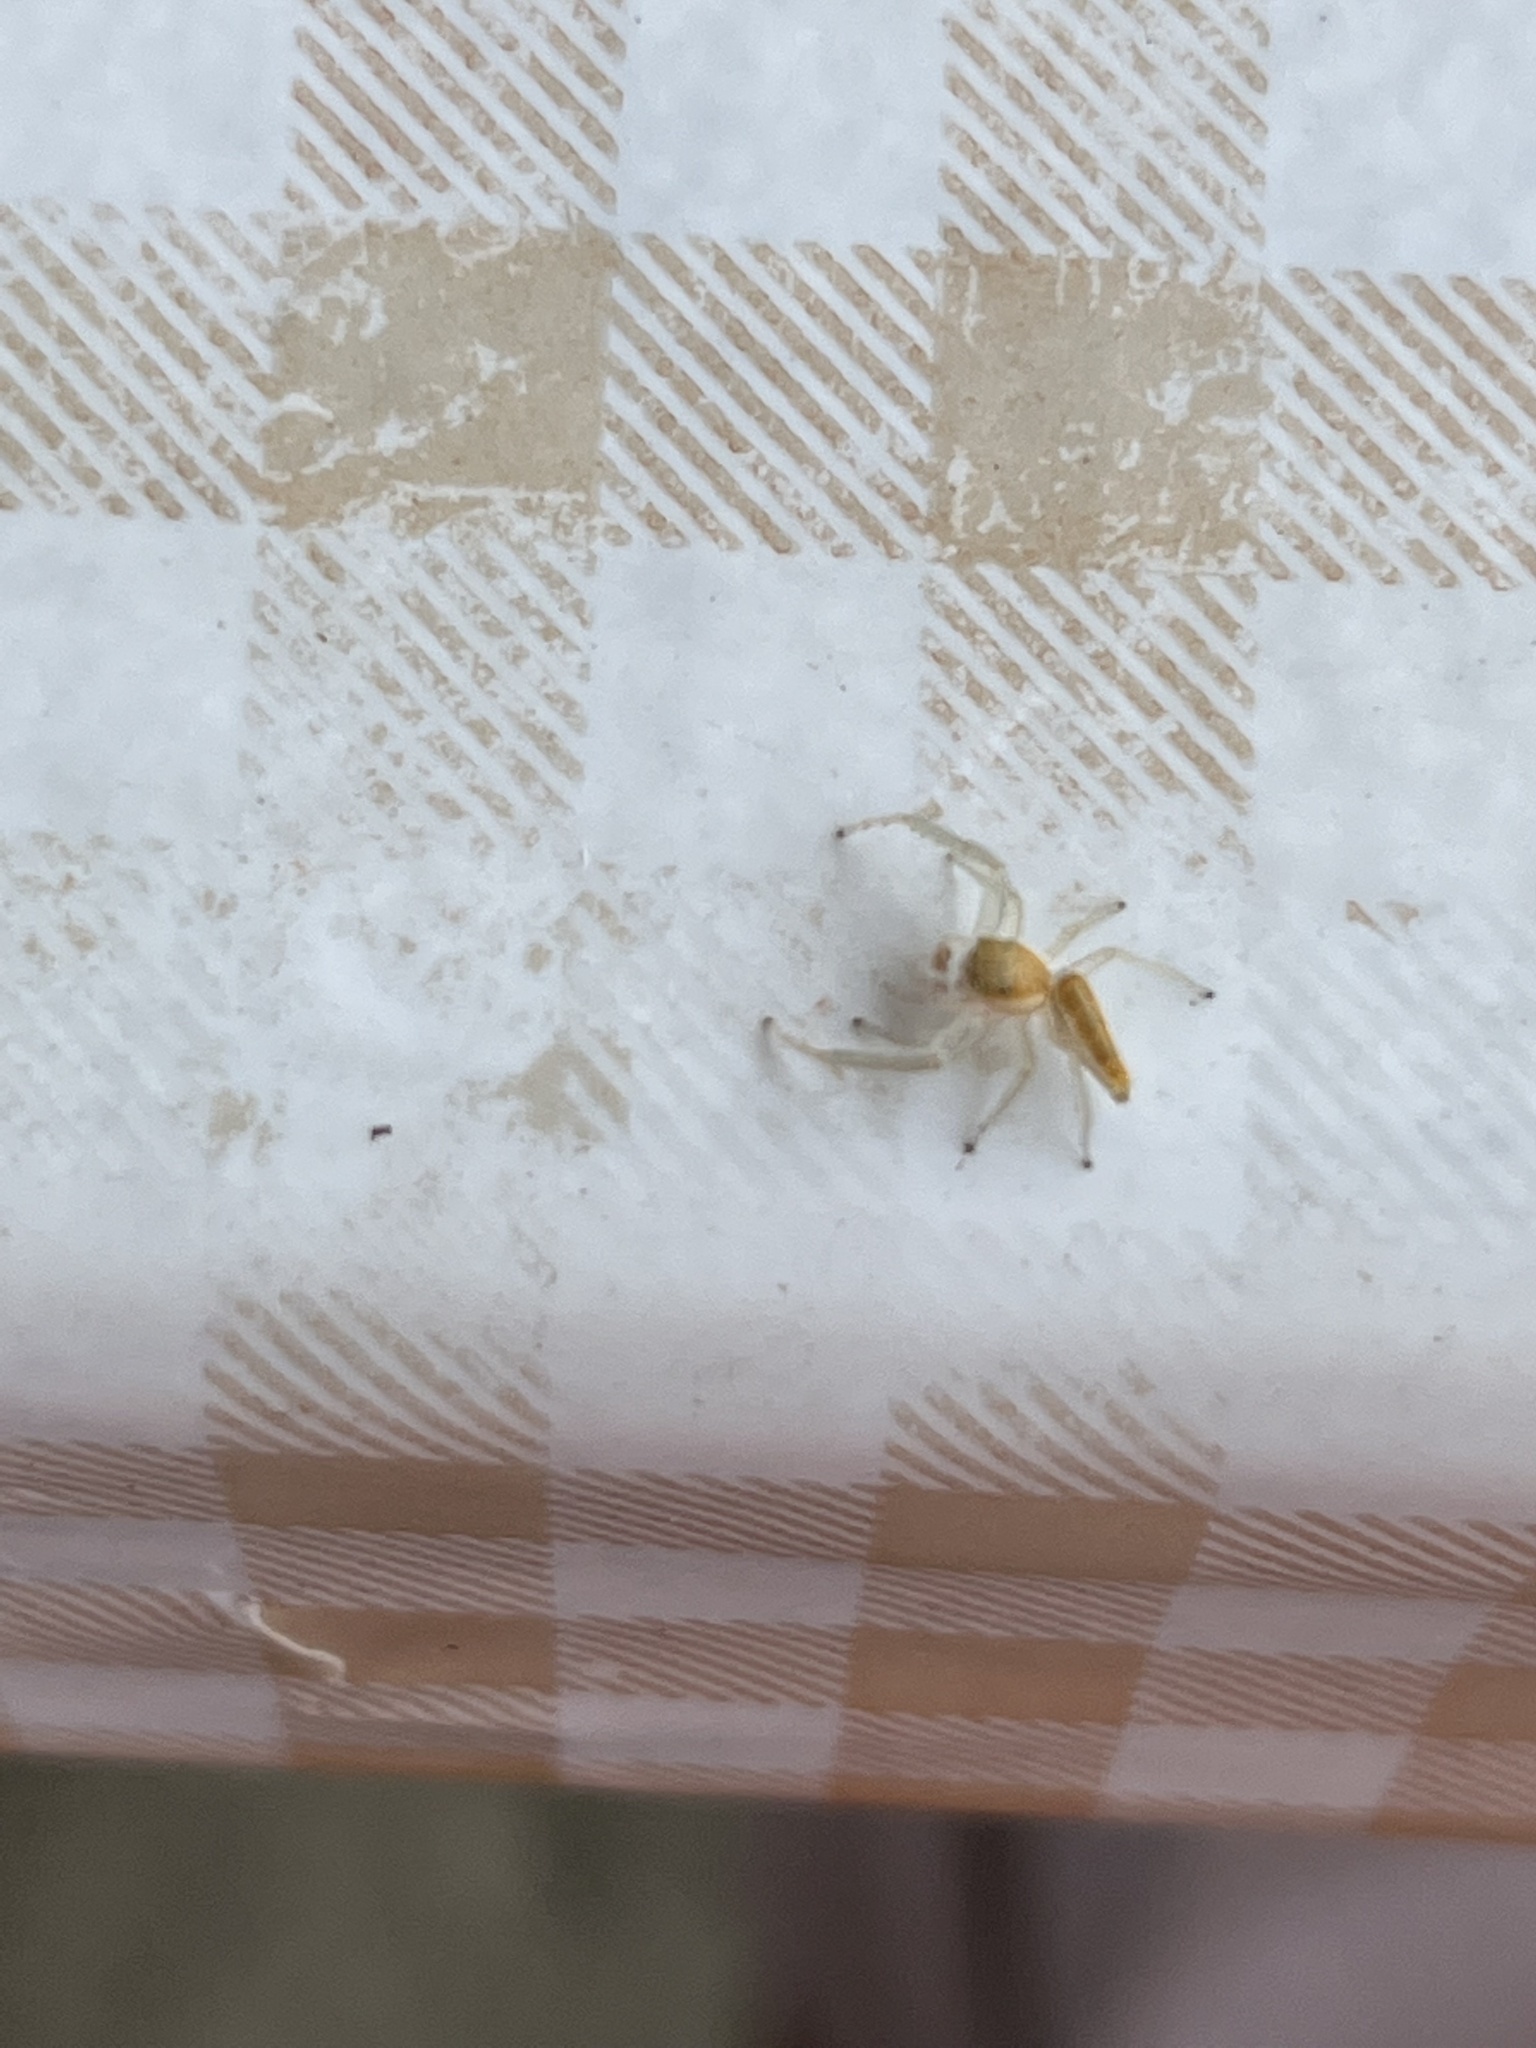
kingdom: Animalia
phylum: Arthropoda
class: Arachnida
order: Araneae
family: Salticidae
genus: Hentzia
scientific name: Hentzia mitrata
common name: White-jawed jumping spider
